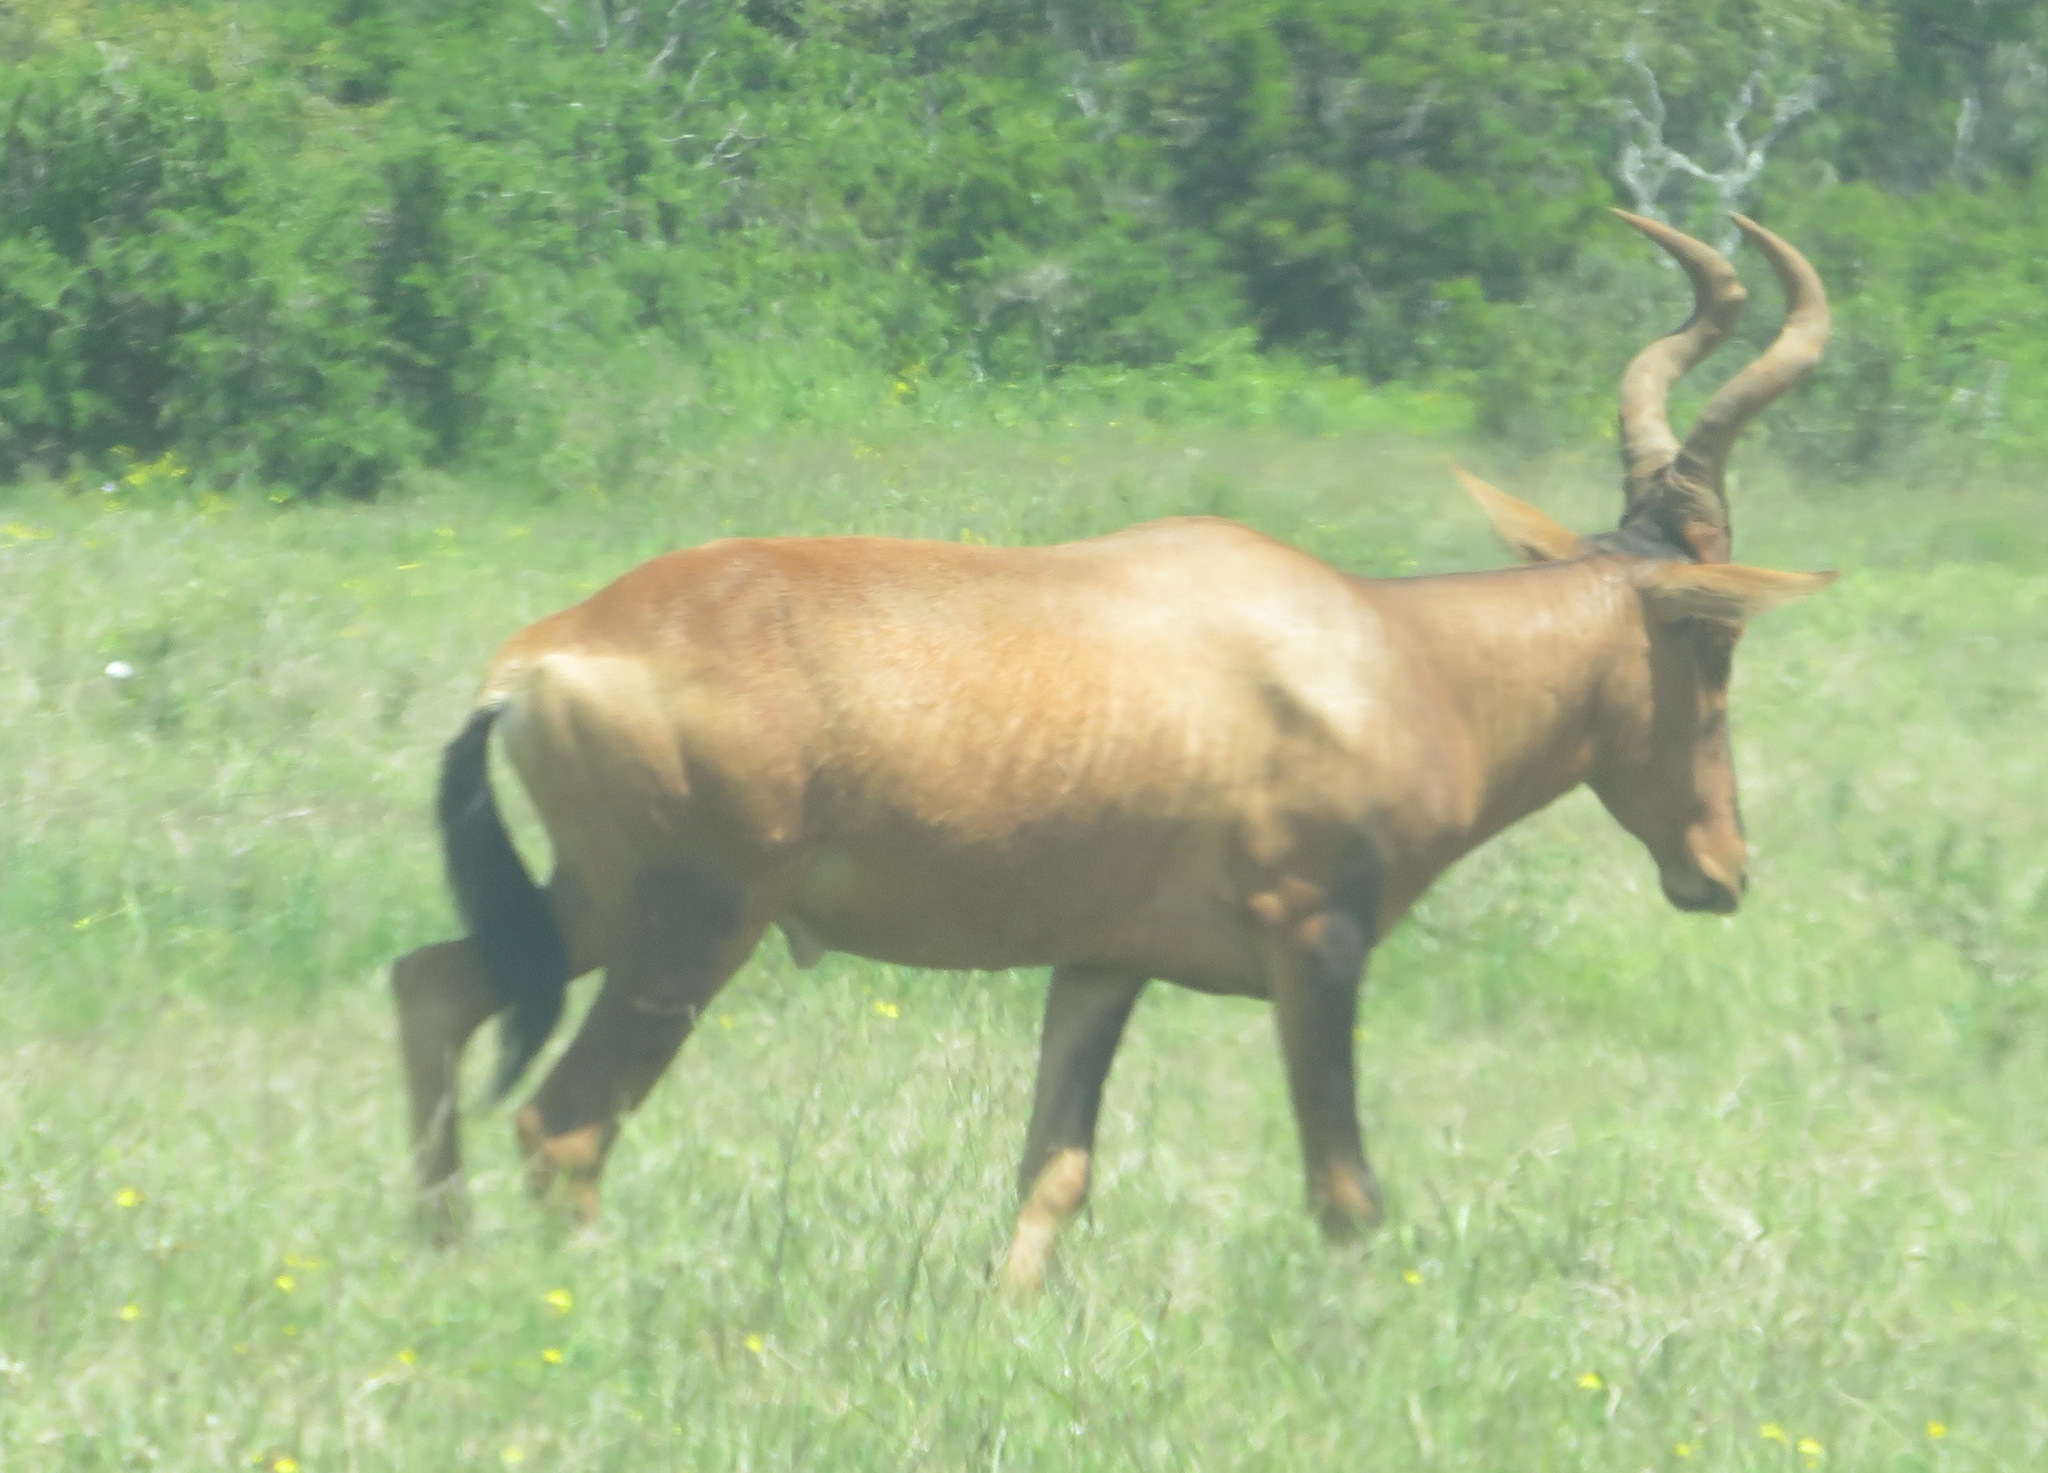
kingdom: Animalia
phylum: Chordata
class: Mammalia
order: Artiodactyla
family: Bovidae
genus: Alcelaphus
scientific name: Alcelaphus caama
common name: Red hartebeest
